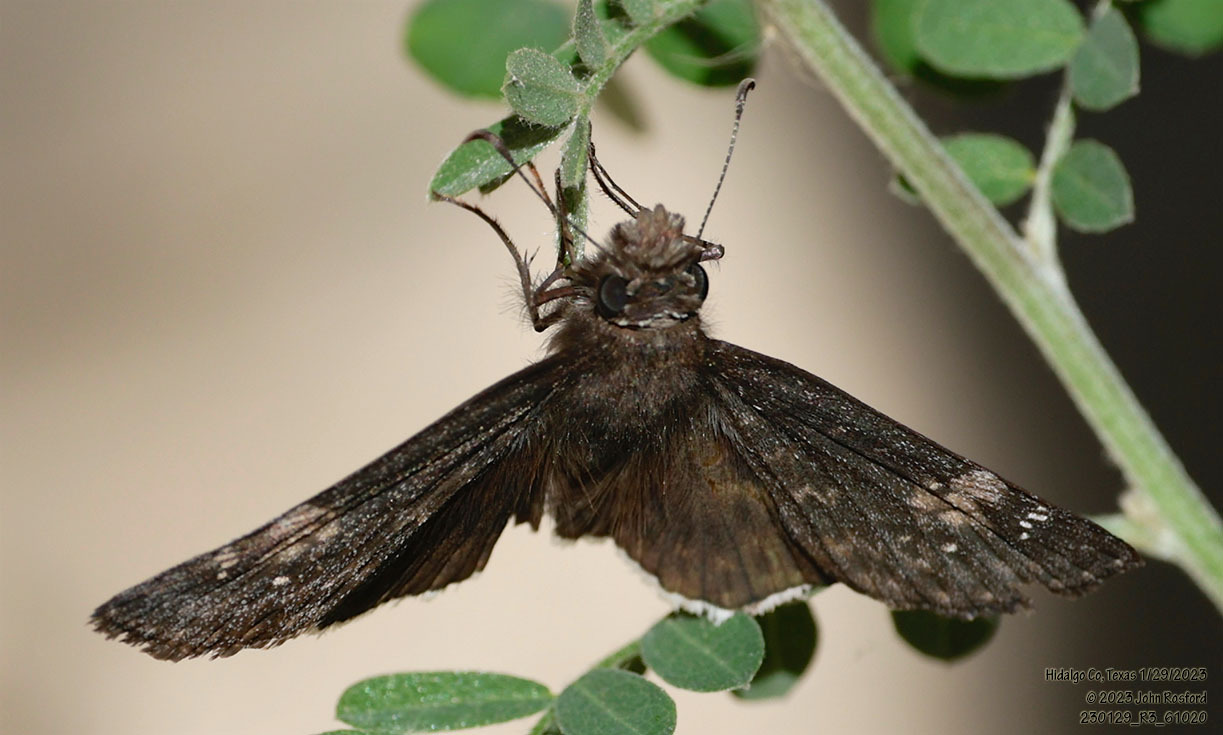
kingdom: Animalia
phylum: Arthropoda
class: Insecta
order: Lepidoptera
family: Hesperiidae
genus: Erynnis
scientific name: Erynnis funeralis
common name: Funereal duskywing
